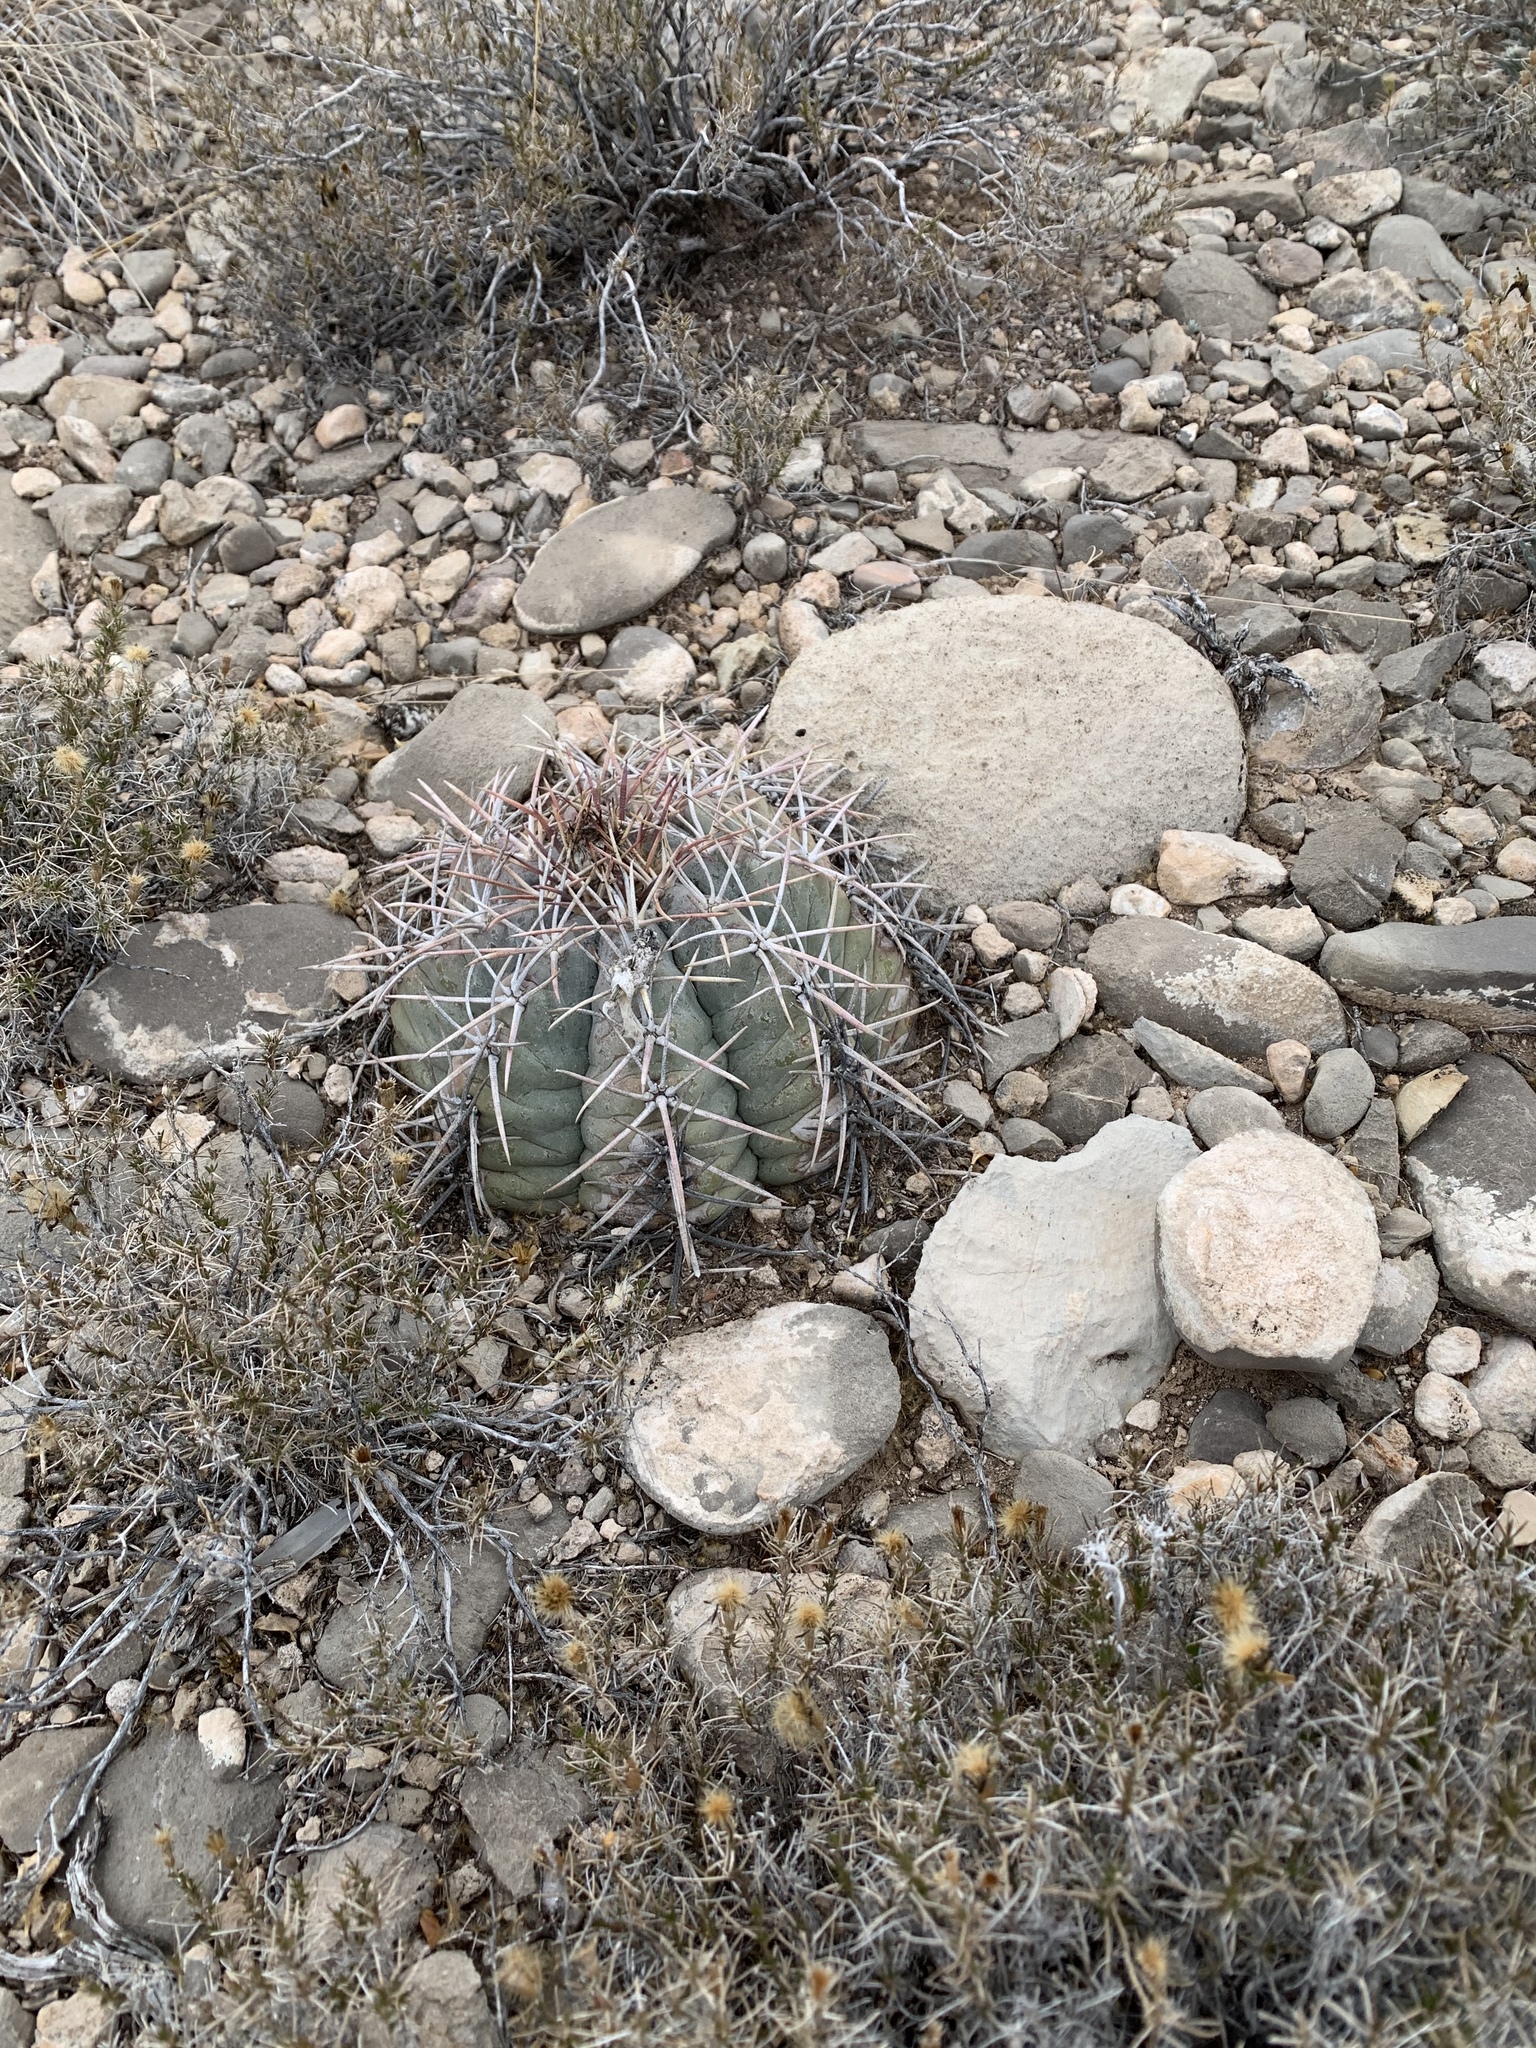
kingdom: Plantae
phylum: Tracheophyta
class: Magnoliopsida
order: Caryophyllales
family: Cactaceae
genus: Echinocactus
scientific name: Echinocactus horizonthalonius
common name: Devilshead
